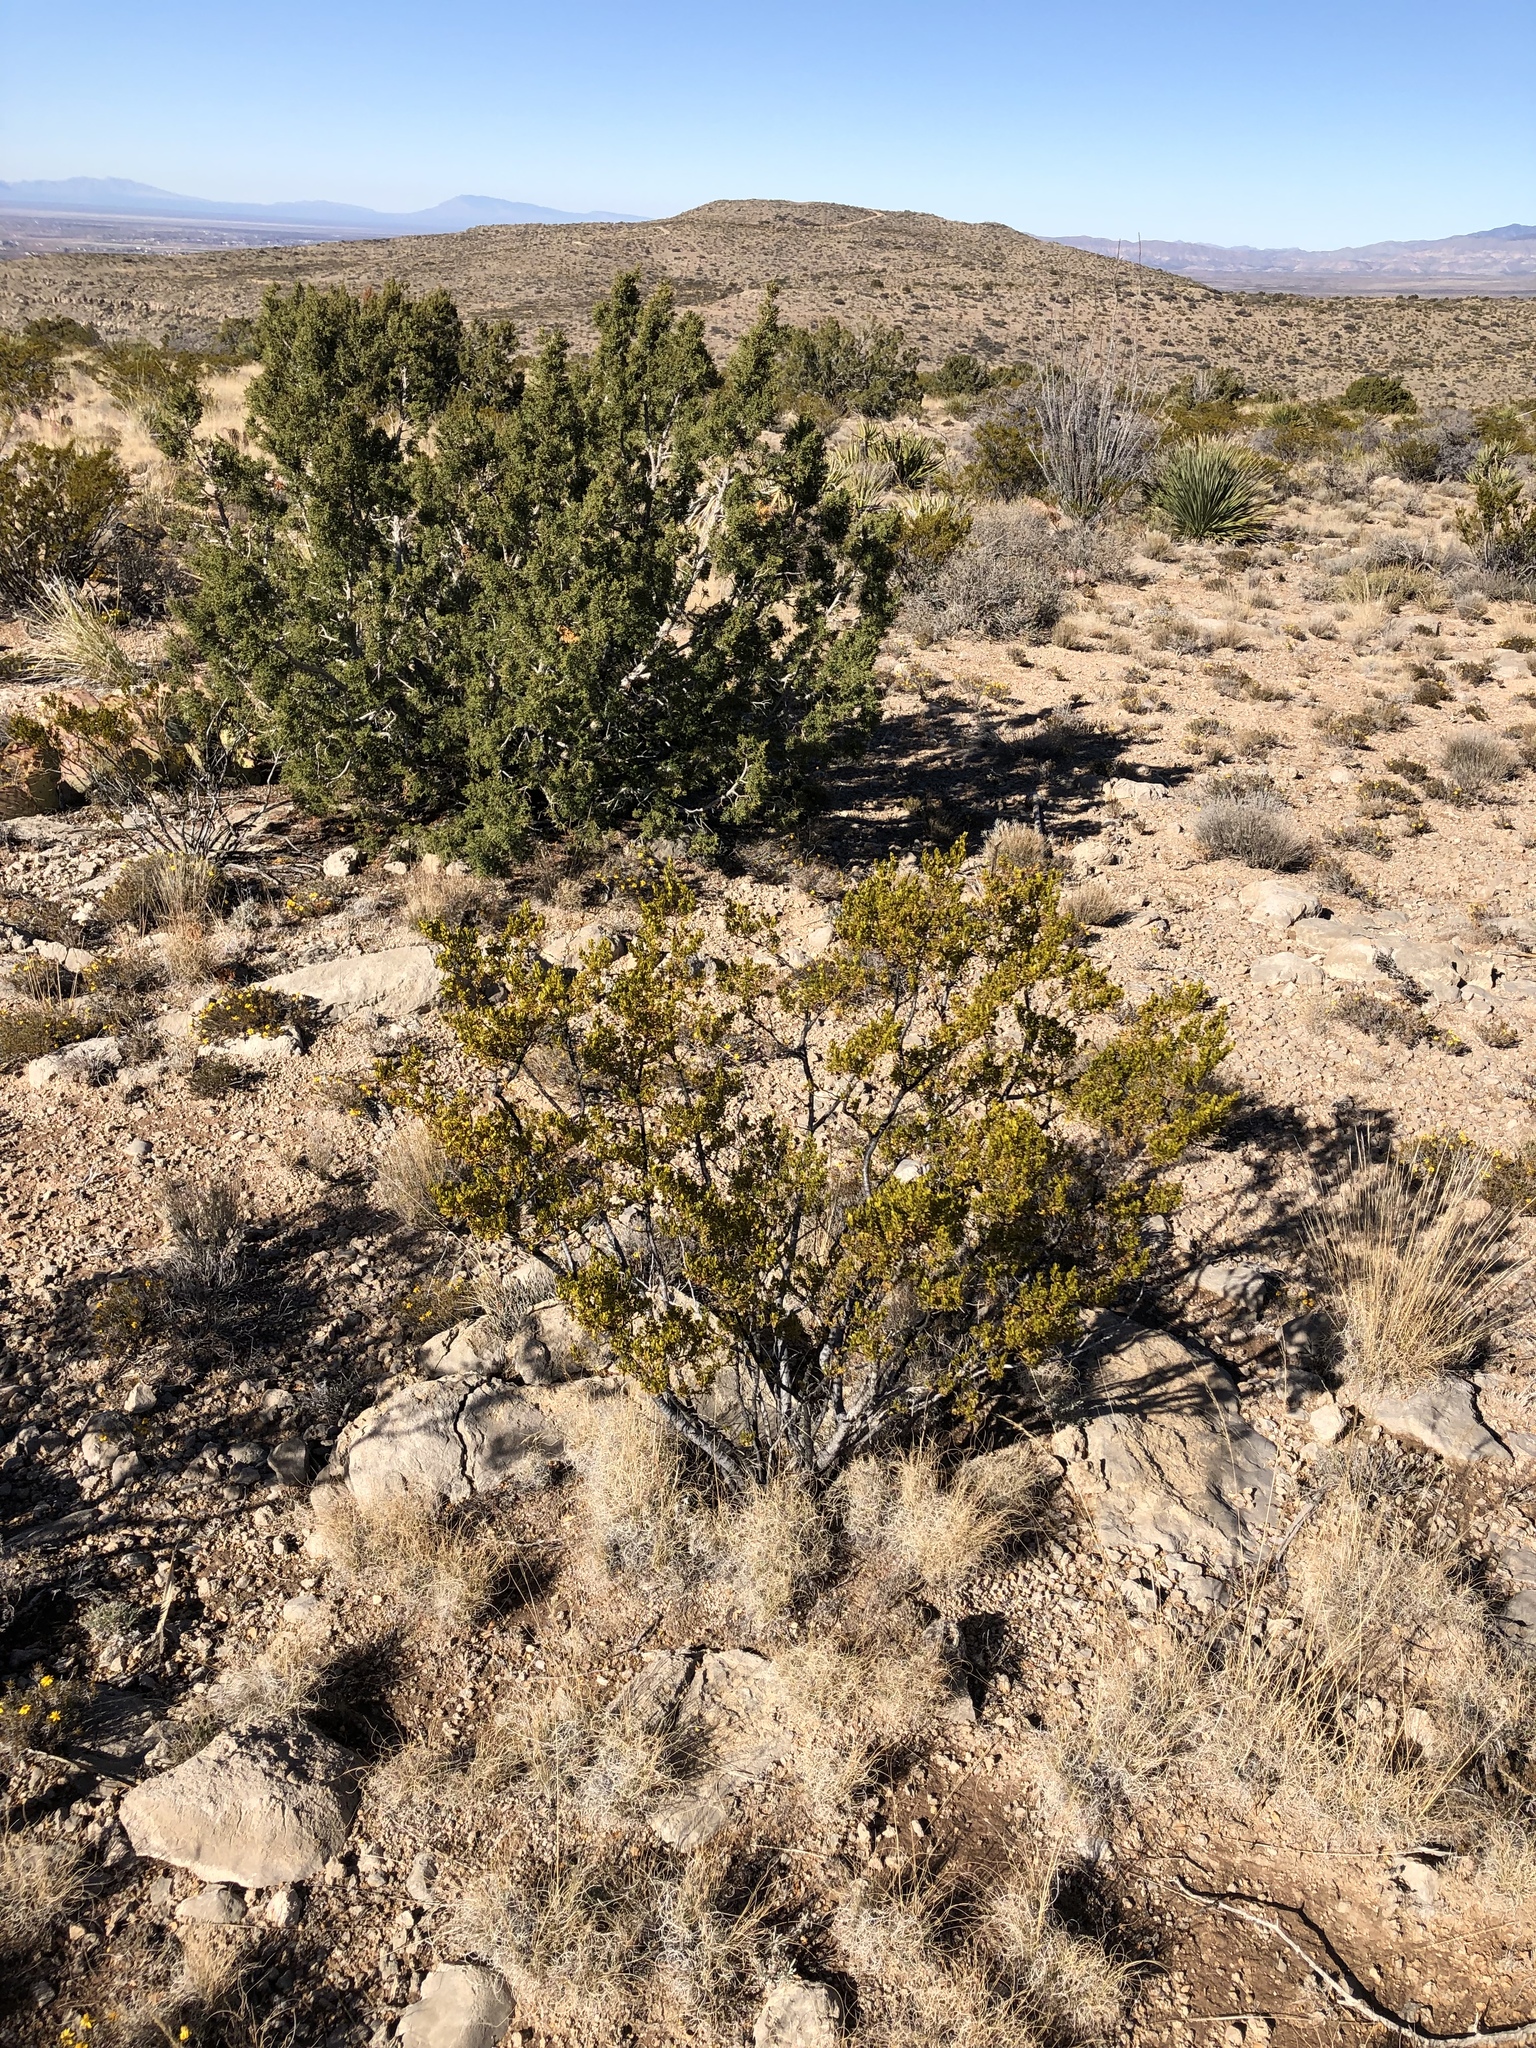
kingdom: Plantae
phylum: Tracheophyta
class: Magnoliopsida
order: Zygophyllales
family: Zygophyllaceae
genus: Larrea
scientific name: Larrea tridentata
